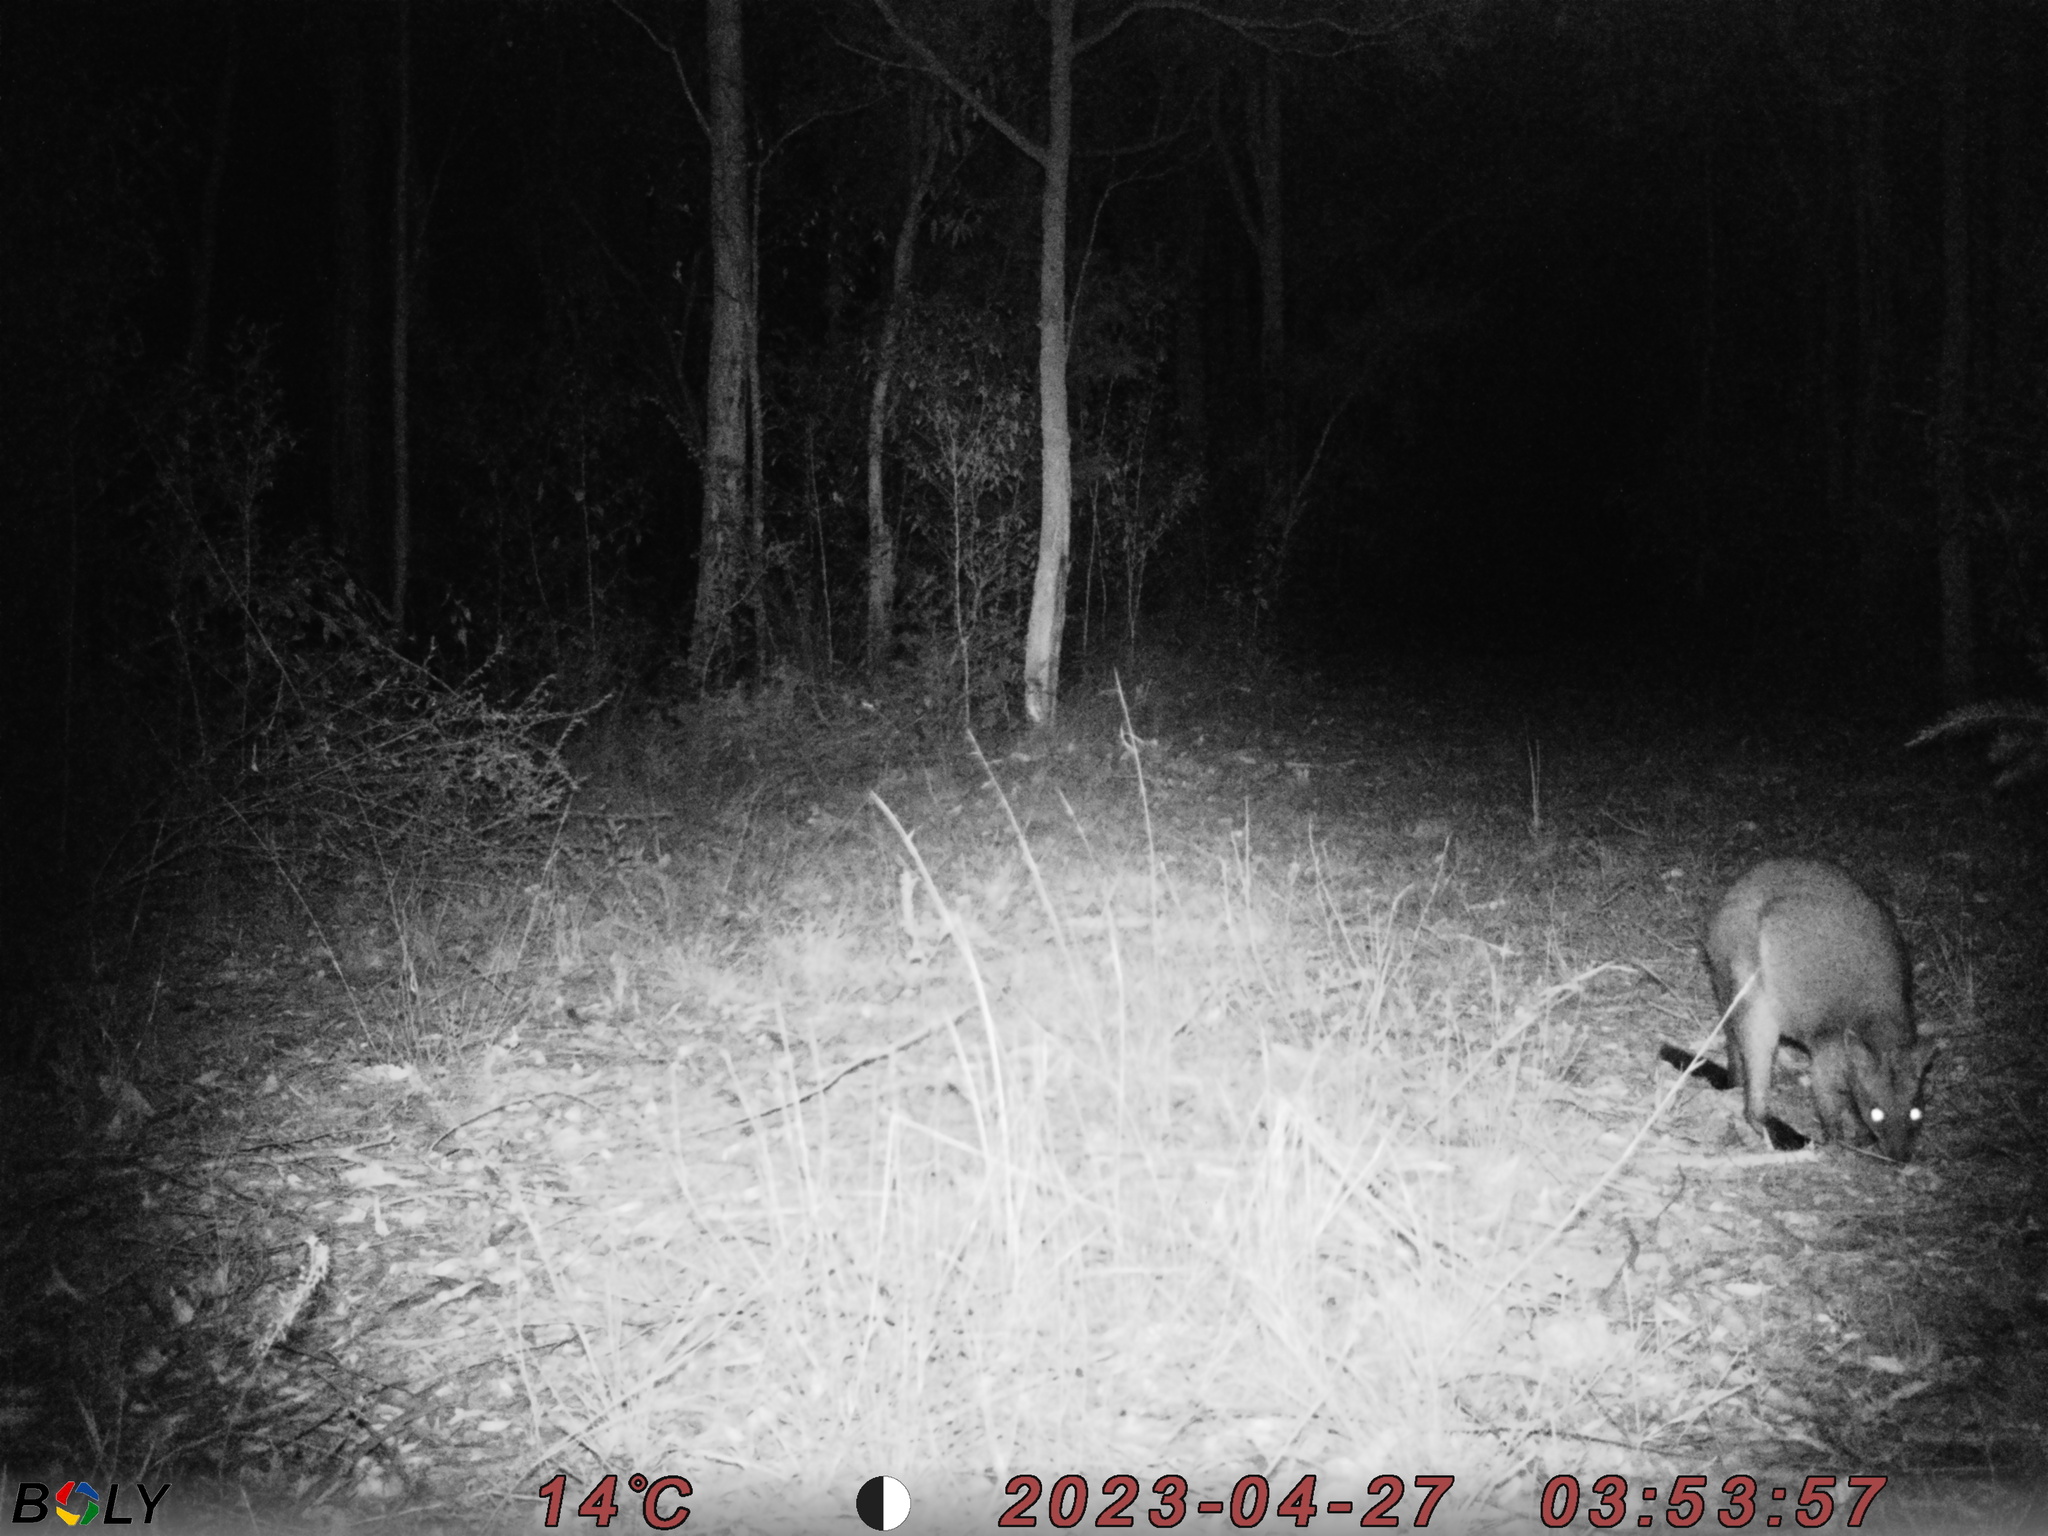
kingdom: Animalia
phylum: Chordata
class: Mammalia
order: Diprotodontia
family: Macropodidae
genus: Wallabia
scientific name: Wallabia bicolor
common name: Swamp wallaby
